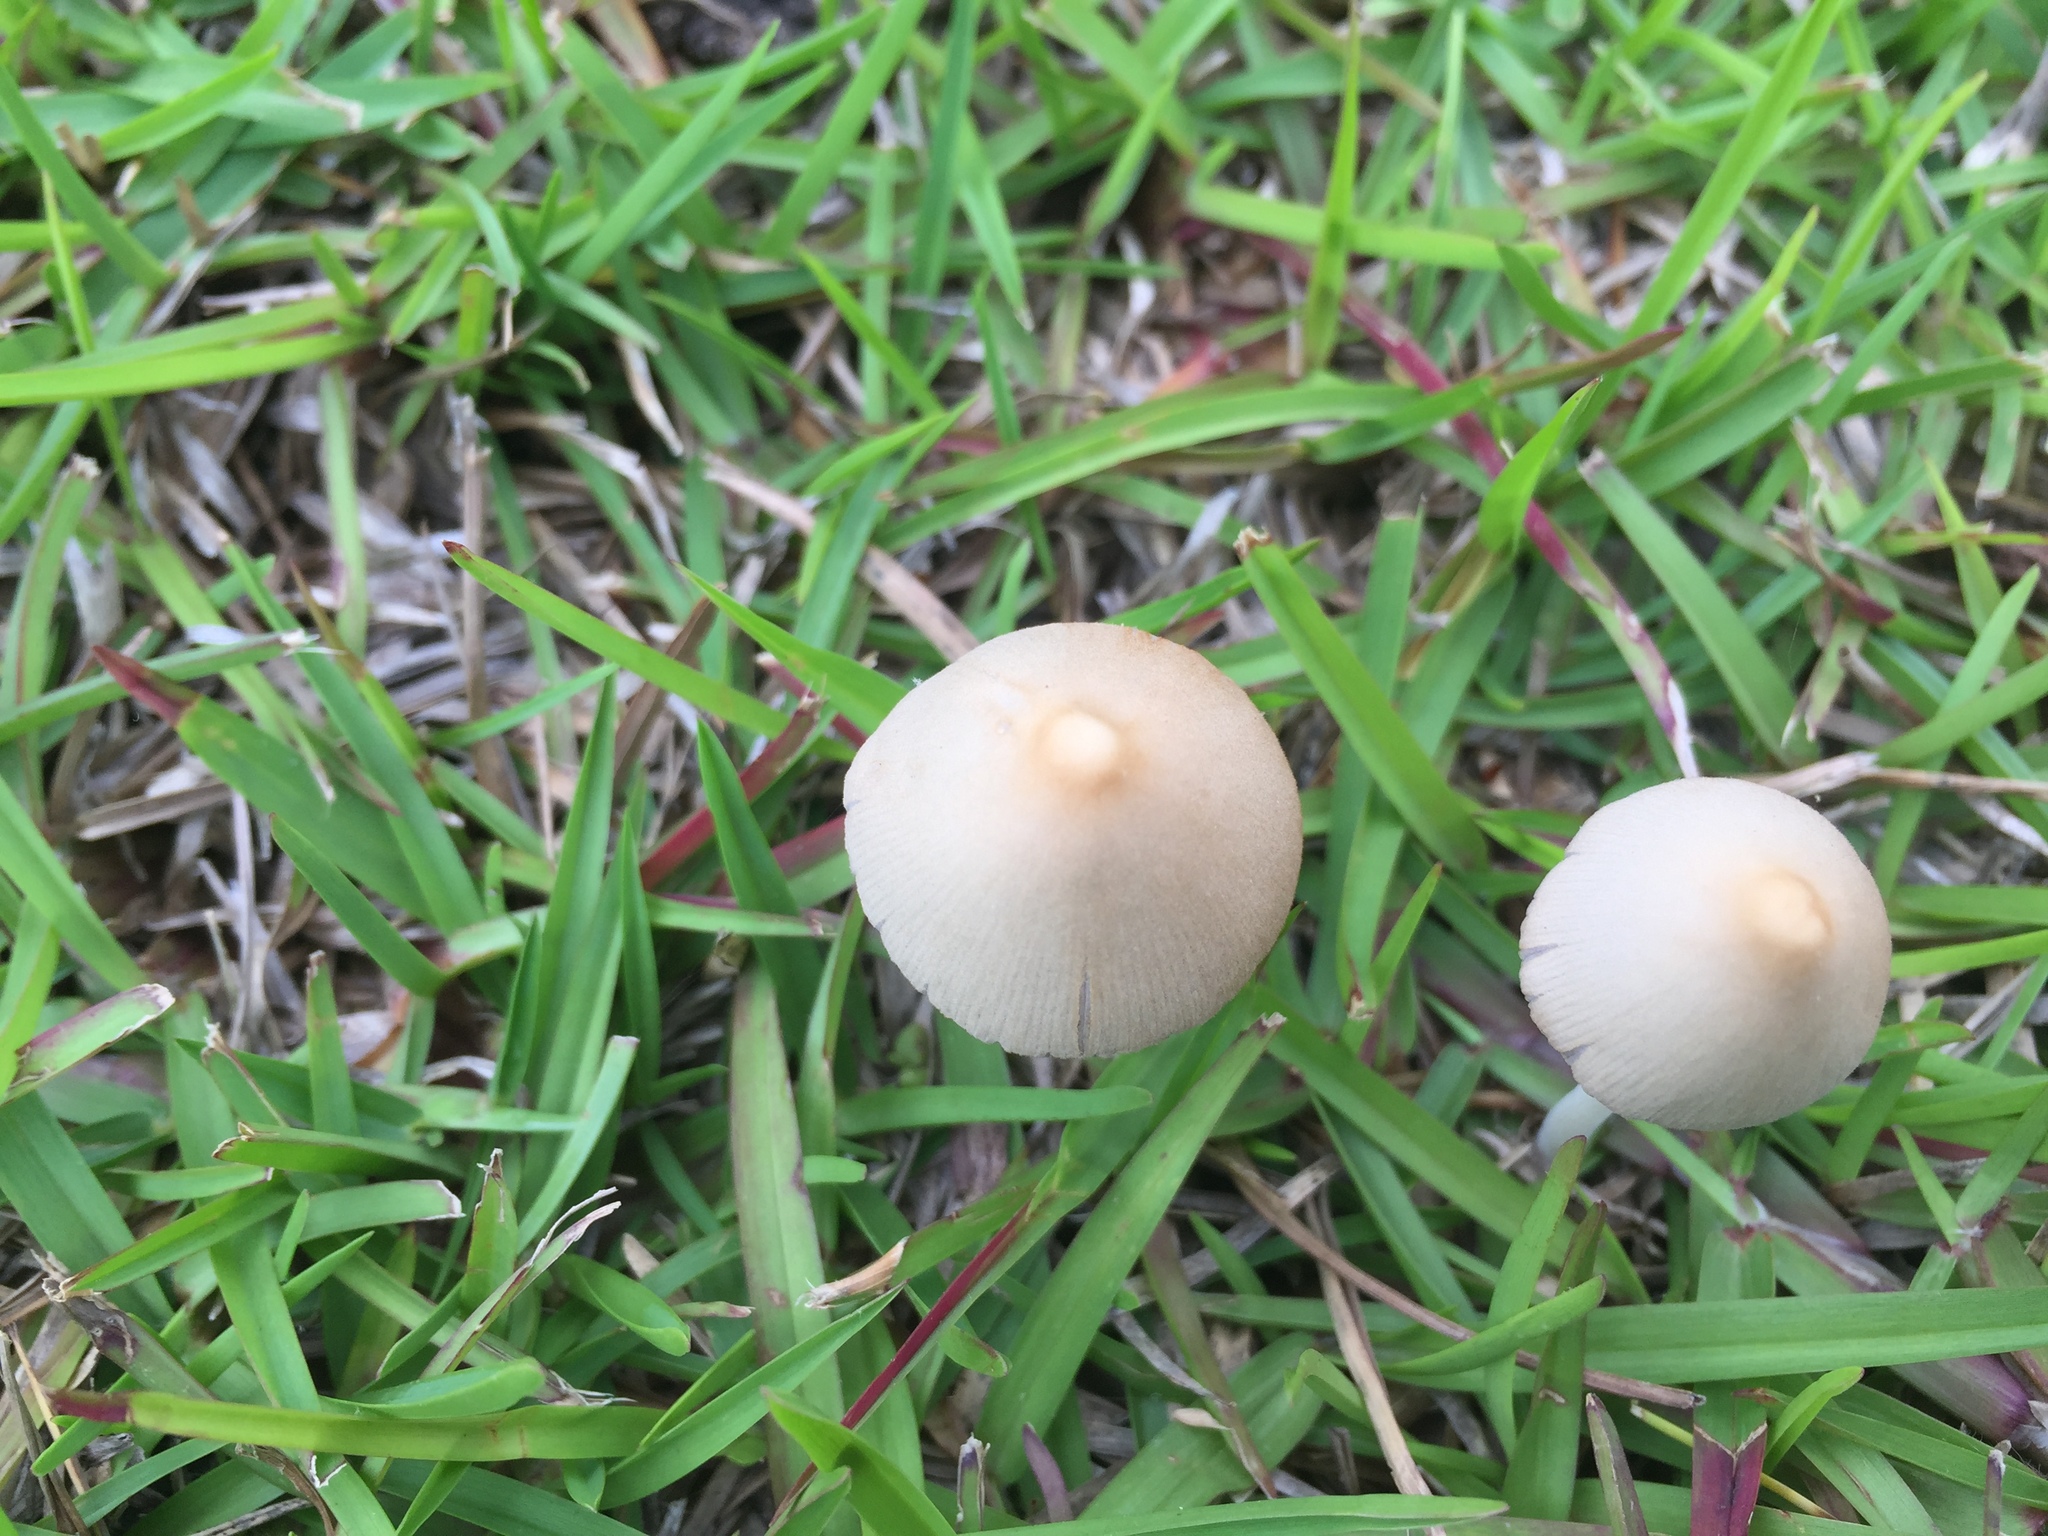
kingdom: Fungi
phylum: Basidiomycota
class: Agaricomycetes
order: Agaricales
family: Bolbitiaceae
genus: Conocybe
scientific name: Conocybe apala
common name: Milky conecap
